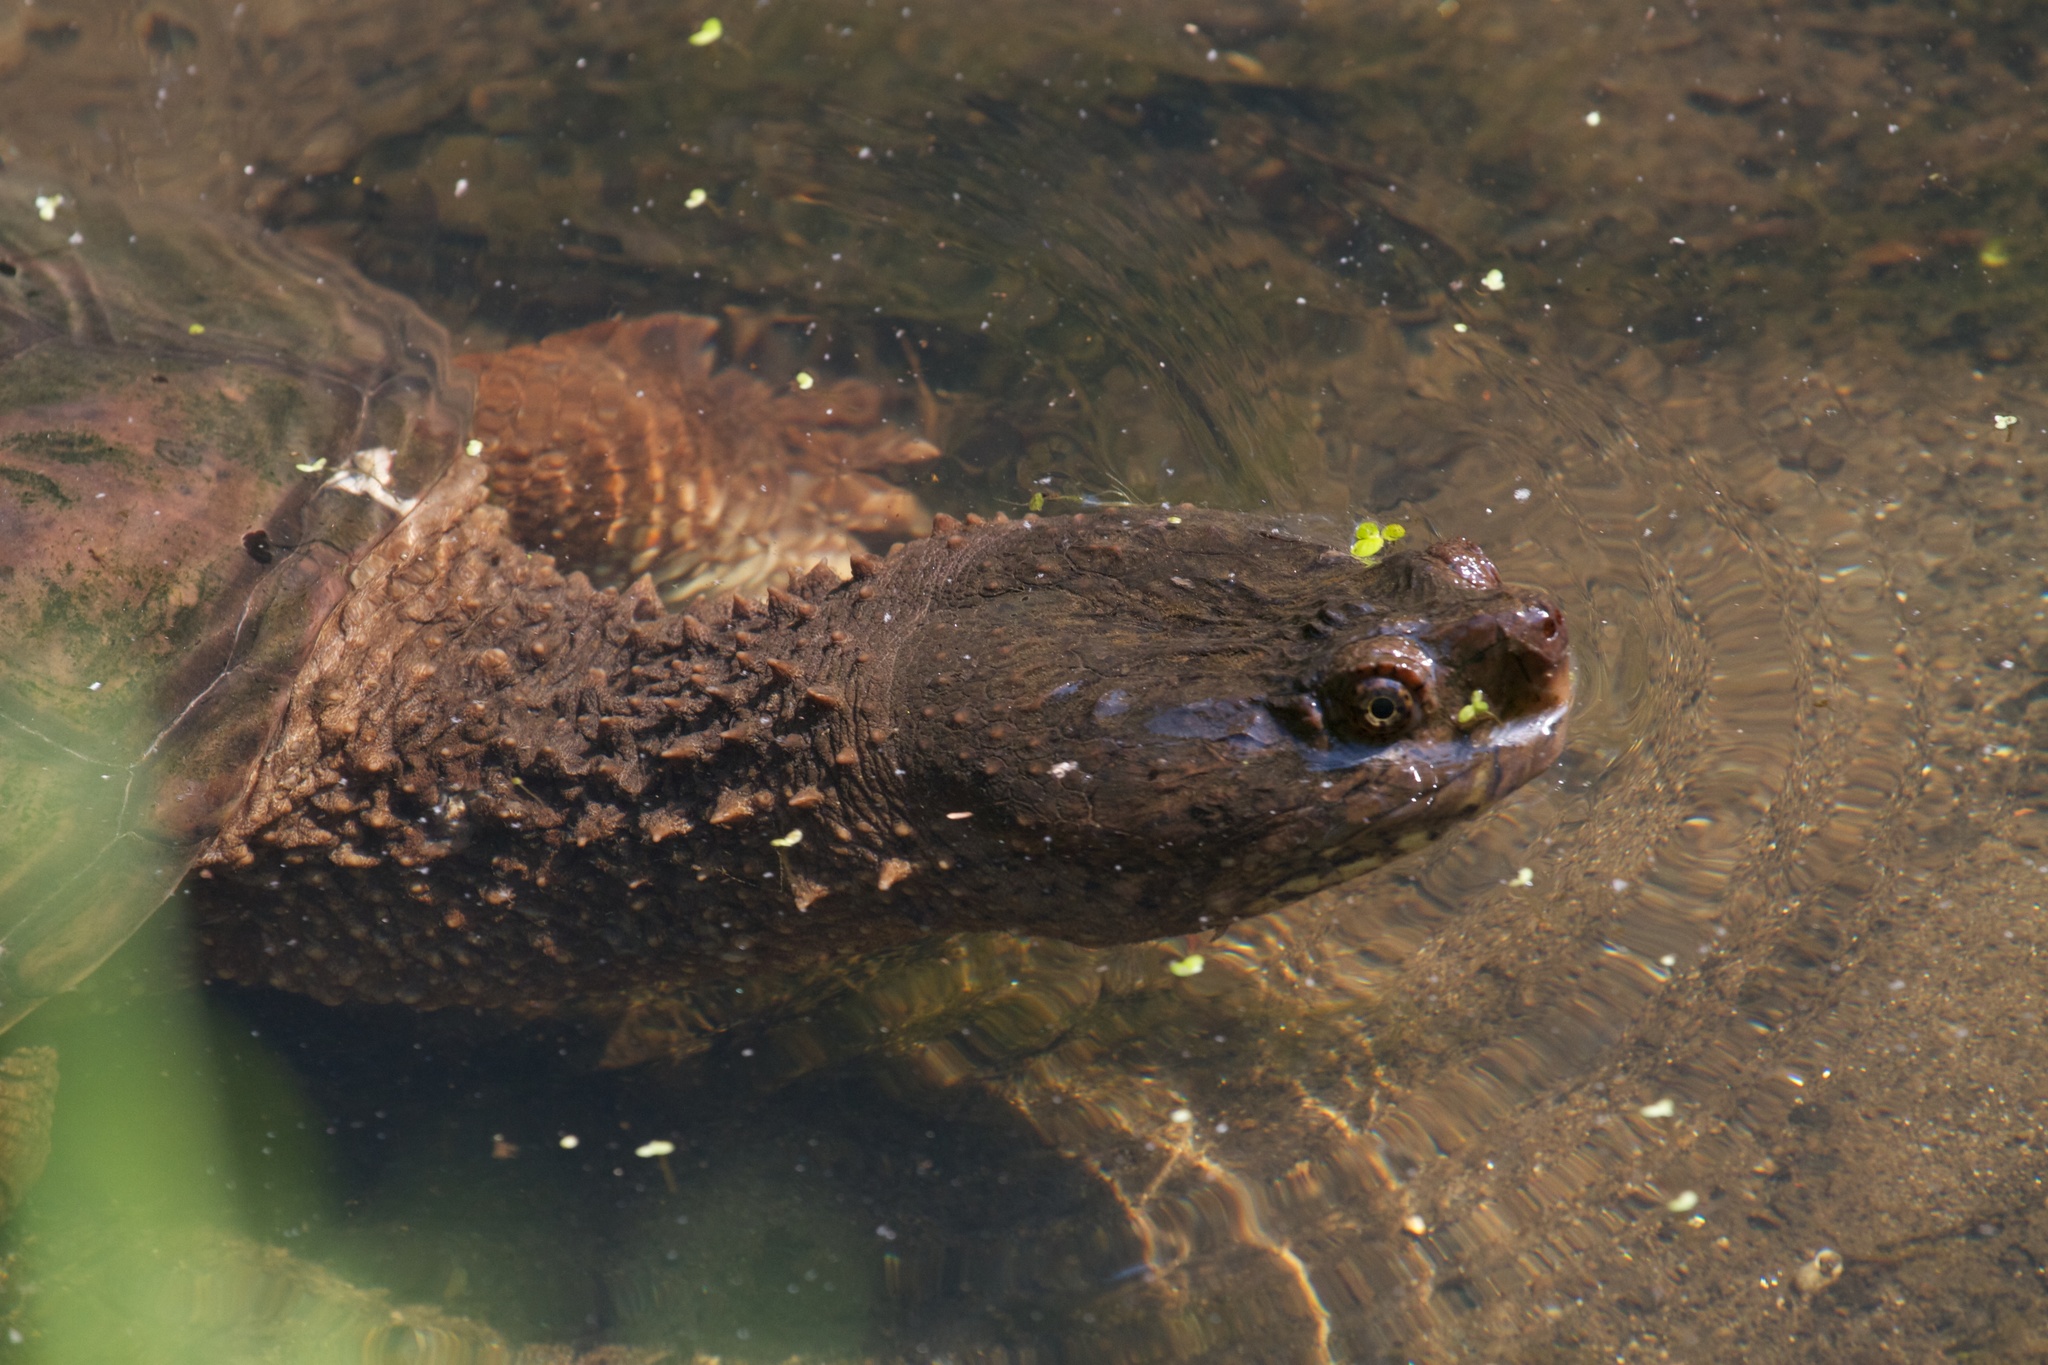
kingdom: Animalia
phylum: Chordata
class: Testudines
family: Chelydridae
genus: Chelydra
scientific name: Chelydra serpentina
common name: Common snapping turtle
